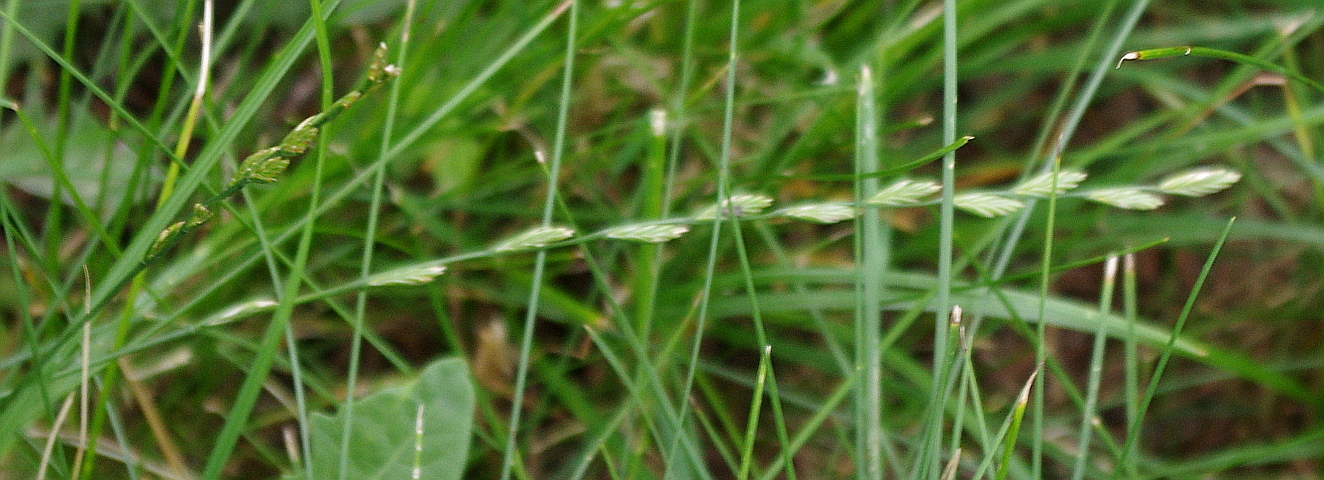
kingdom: Plantae
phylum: Tracheophyta
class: Liliopsida
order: Poales
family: Poaceae
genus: Lolium
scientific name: Lolium perenne
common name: Perennial ryegrass
